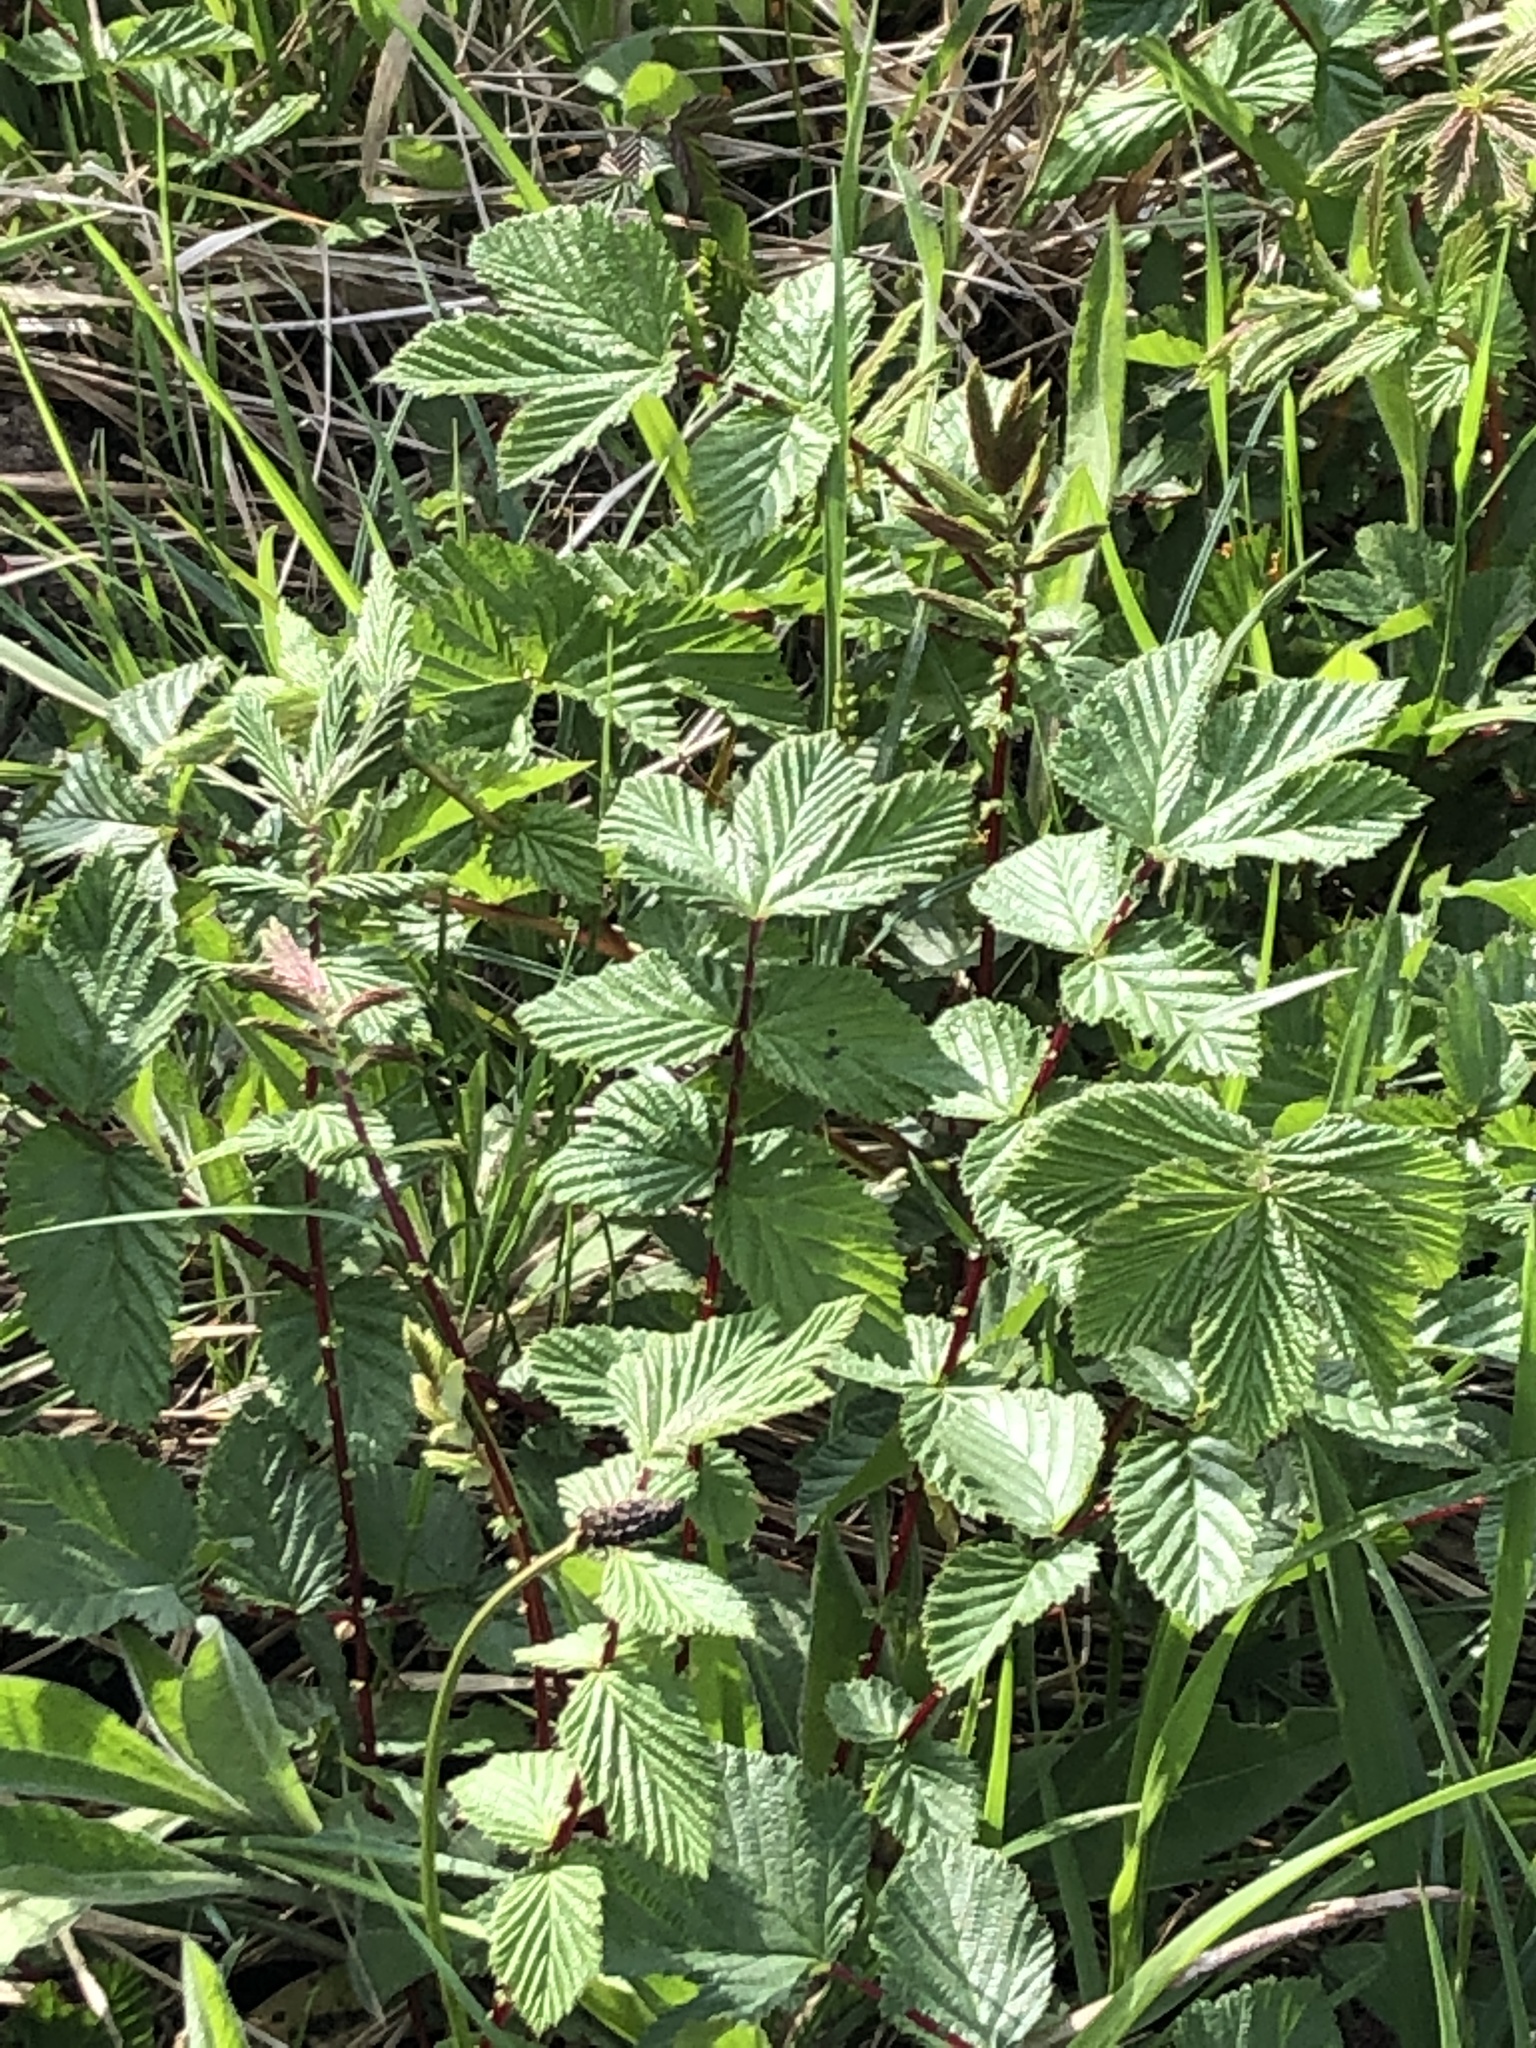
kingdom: Plantae
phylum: Tracheophyta
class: Magnoliopsida
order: Rosales
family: Rosaceae
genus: Filipendula
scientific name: Filipendula ulmaria
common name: Meadowsweet
